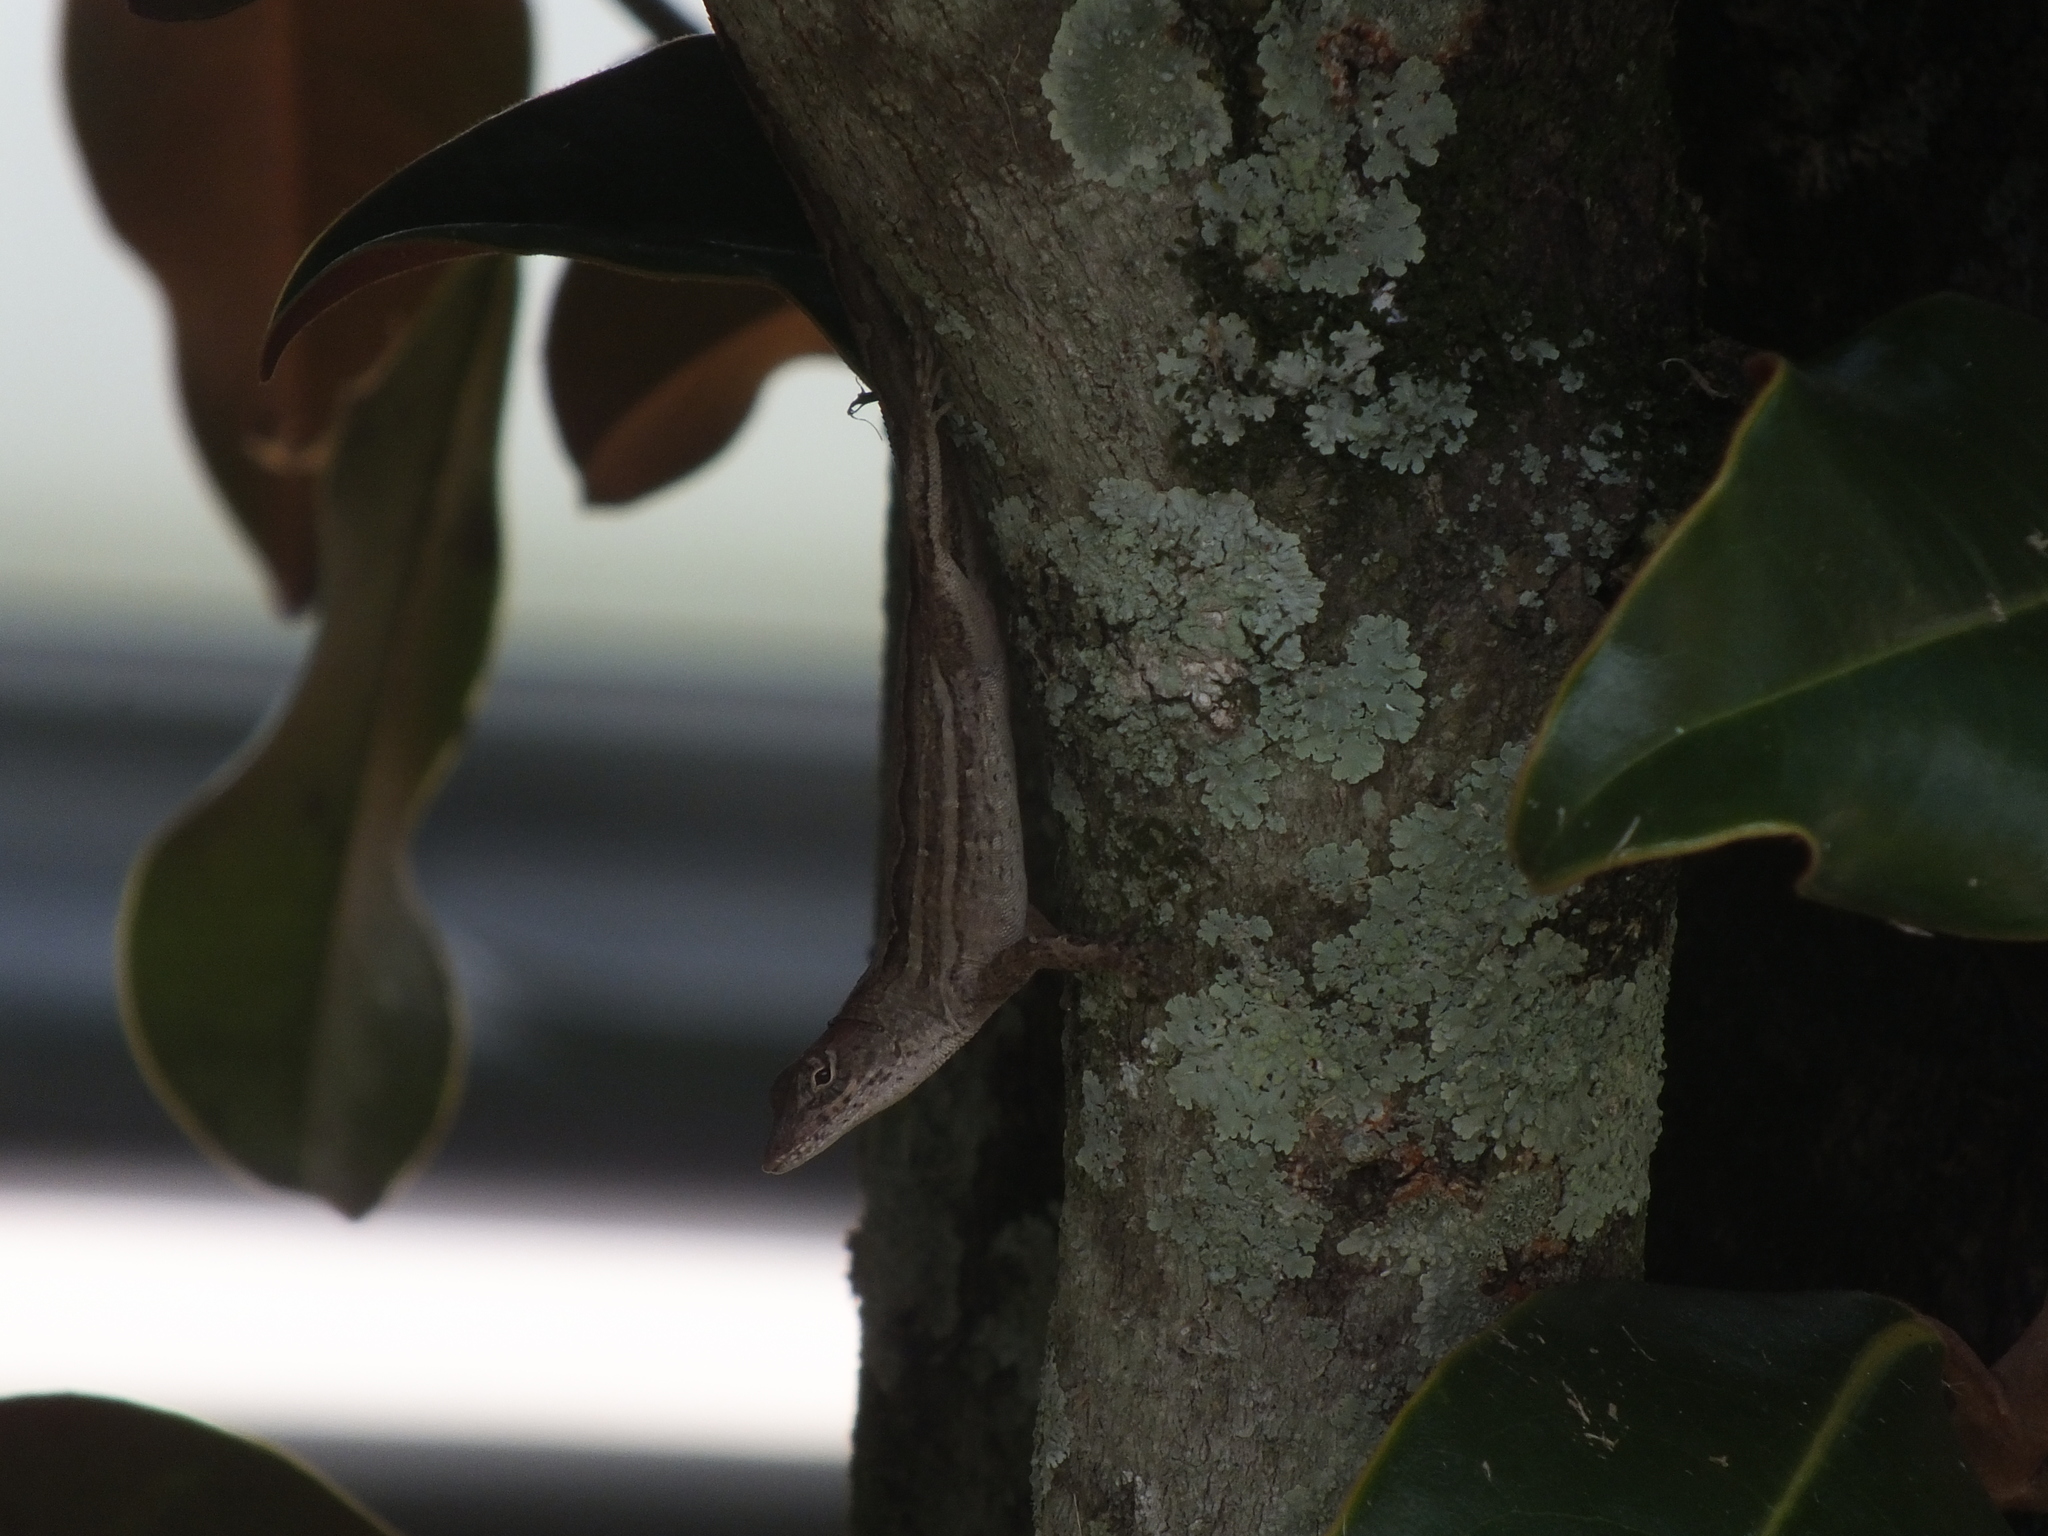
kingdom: Animalia
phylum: Chordata
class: Squamata
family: Dactyloidae
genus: Anolis
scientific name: Anolis sagrei
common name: Brown anole
